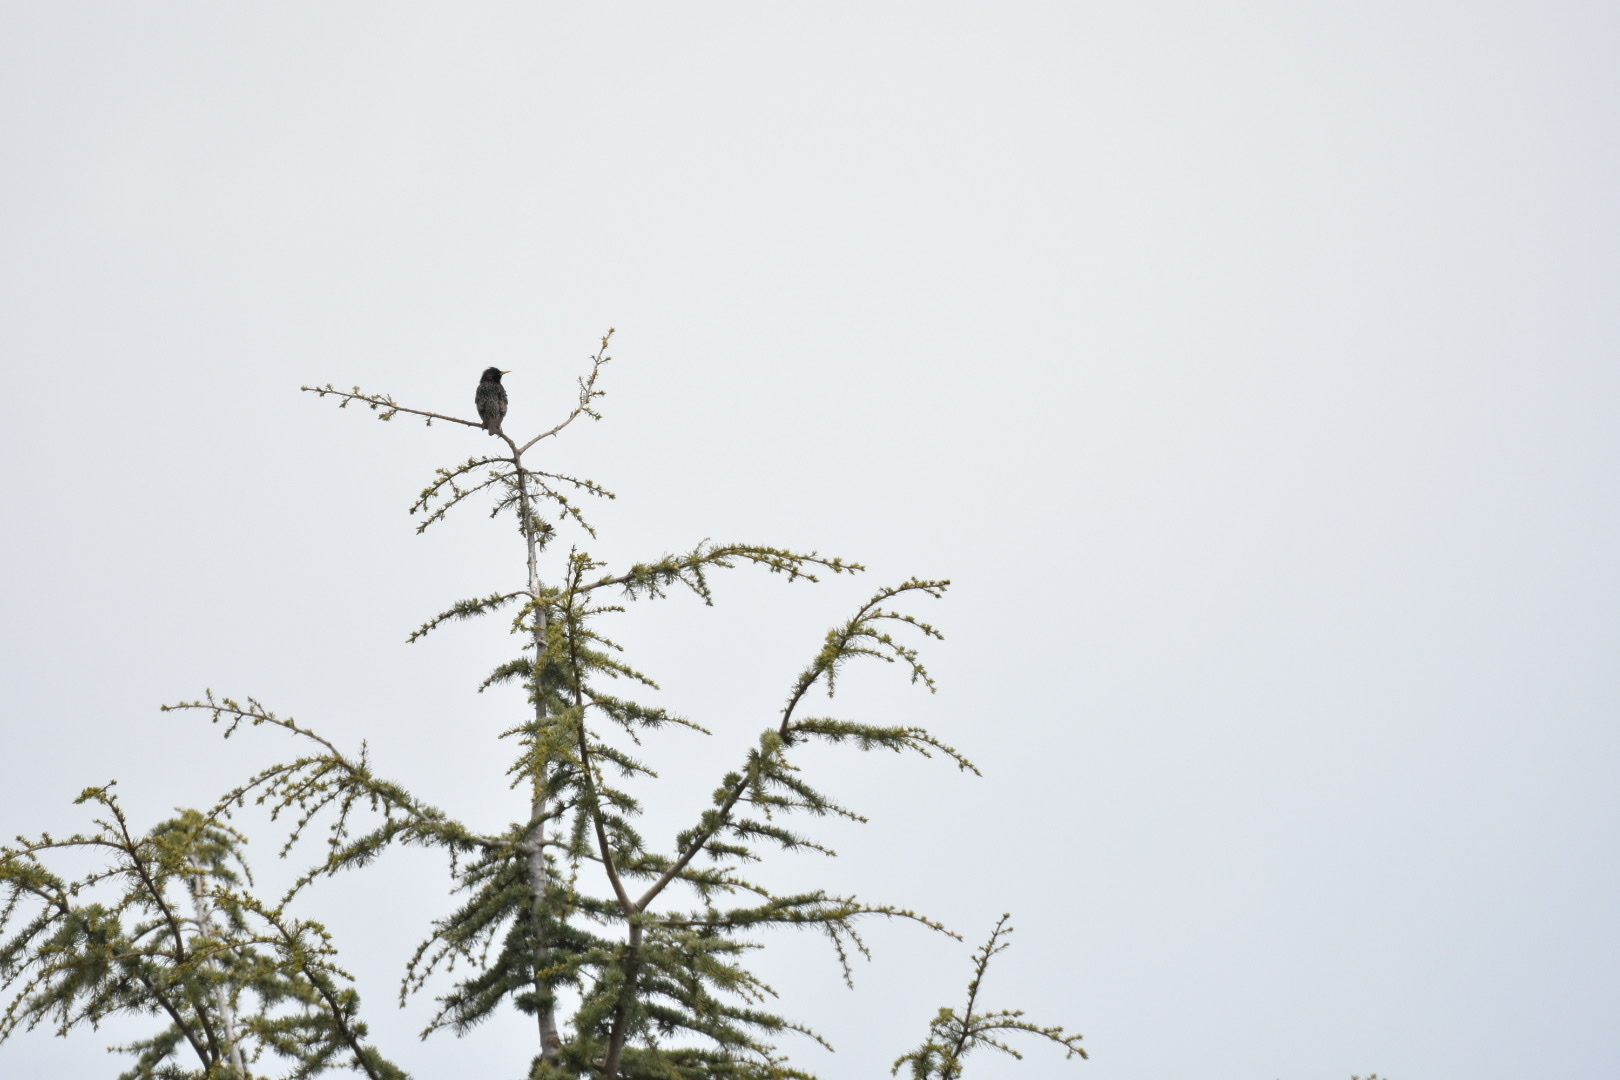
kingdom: Animalia
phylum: Chordata
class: Aves
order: Passeriformes
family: Sturnidae
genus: Sturnus
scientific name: Sturnus vulgaris
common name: Common starling
